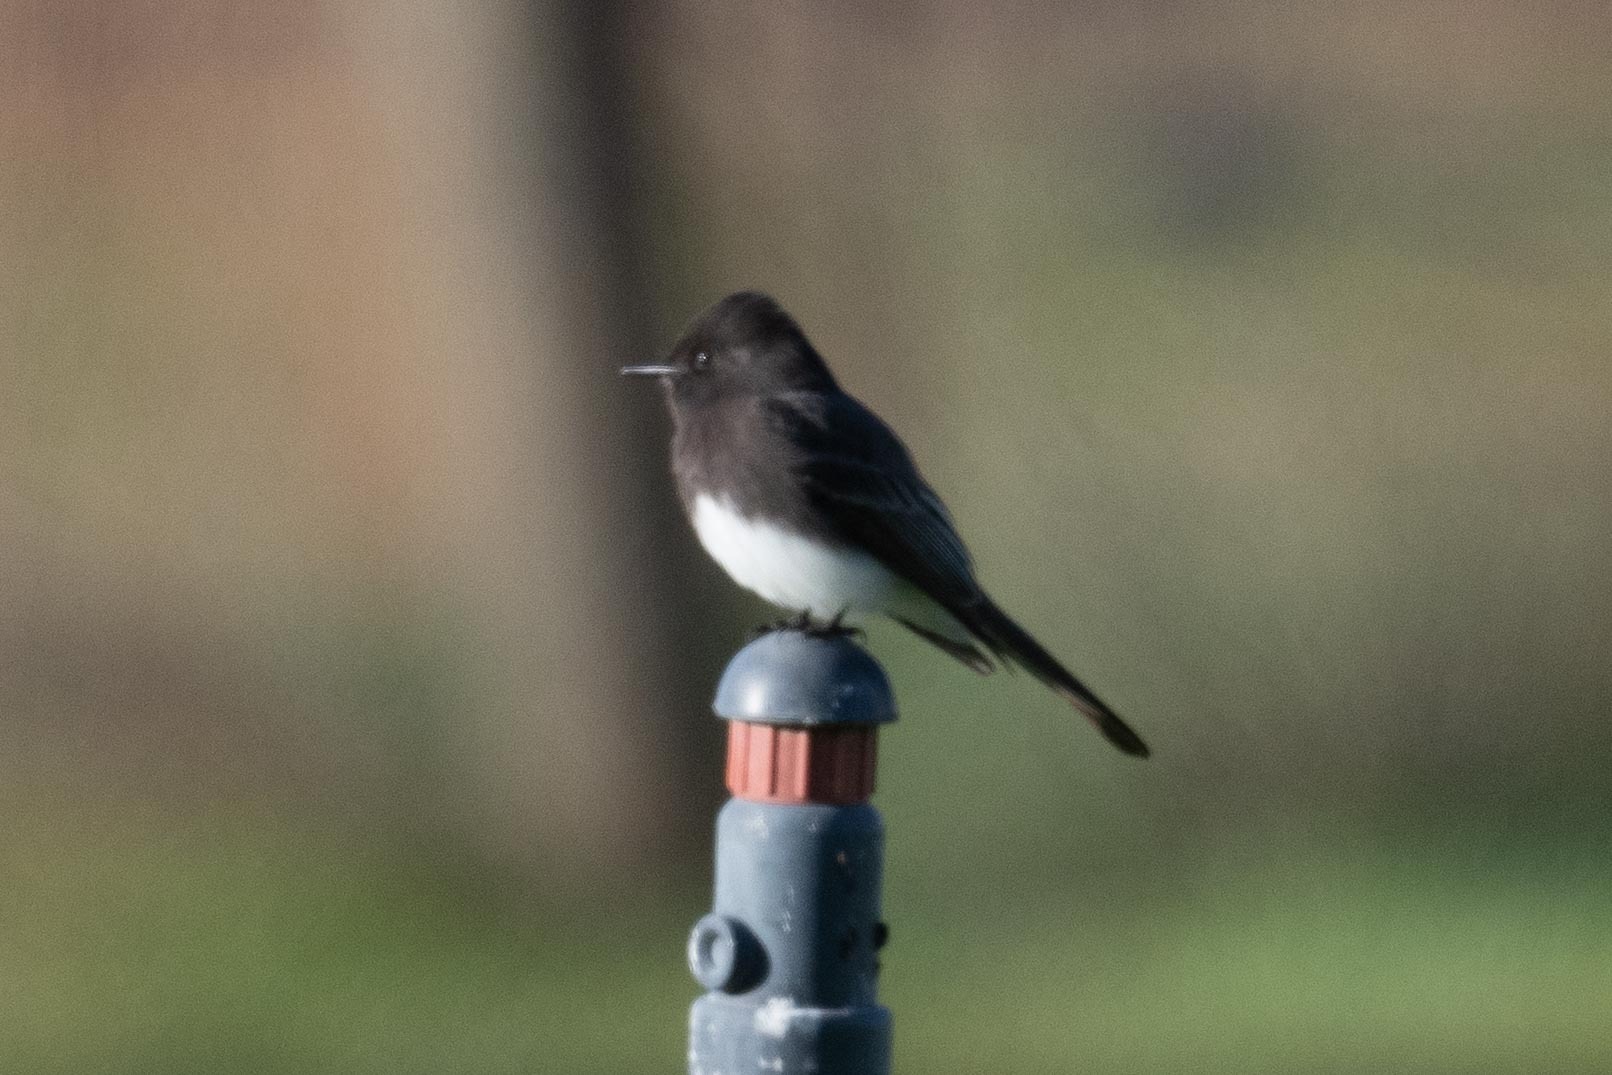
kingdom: Animalia
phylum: Chordata
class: Aves
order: Passeriformes
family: Tyrannidae
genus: Sayornis
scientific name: Sayornis nigricans
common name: Black phoebe
